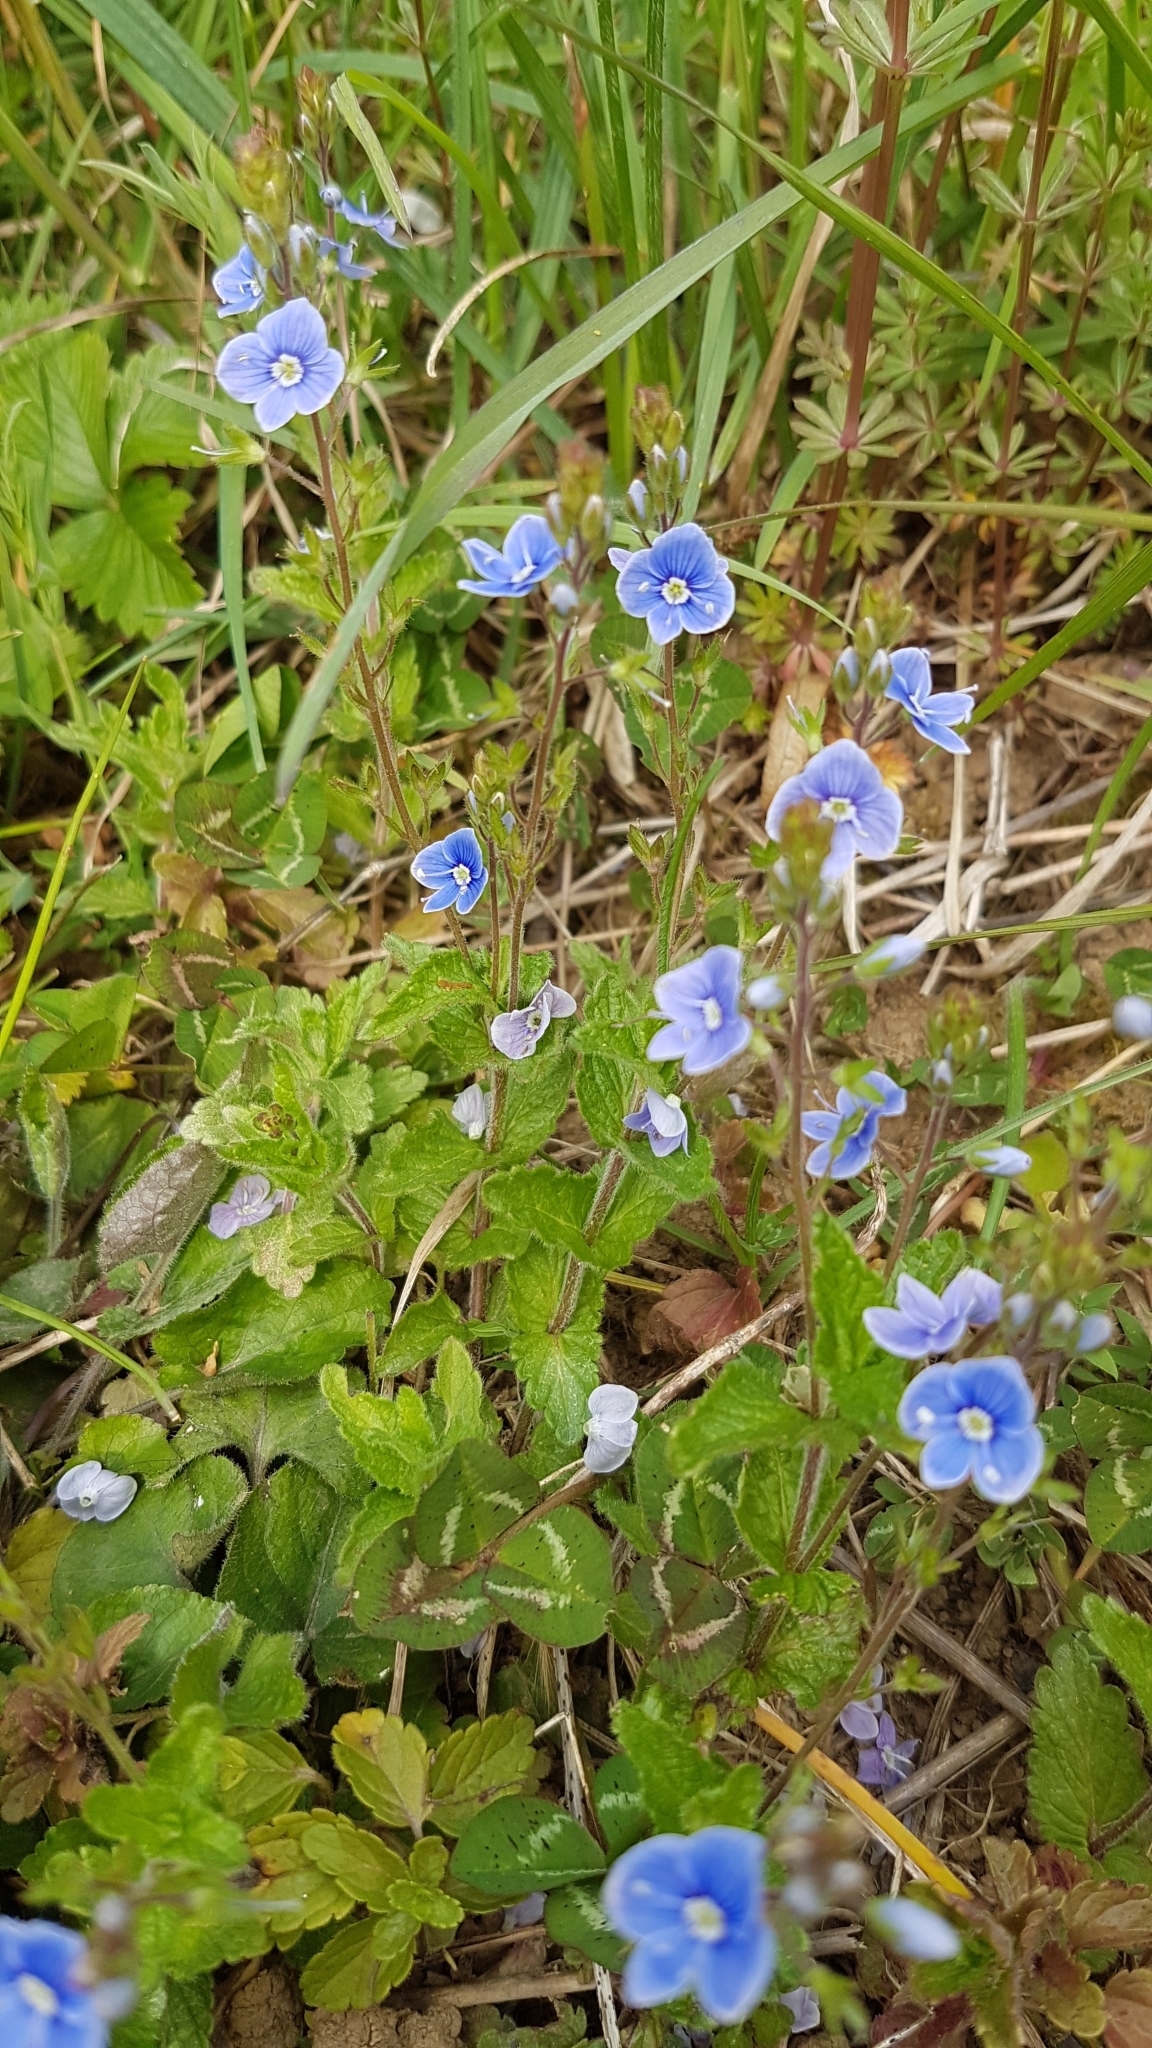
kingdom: Plantae
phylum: Tracheophyta
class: Magnoliopsida
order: Lamiales
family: Plantaginaceae
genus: Veronica
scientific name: Veronica chamaedrys
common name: Germander speedwell
